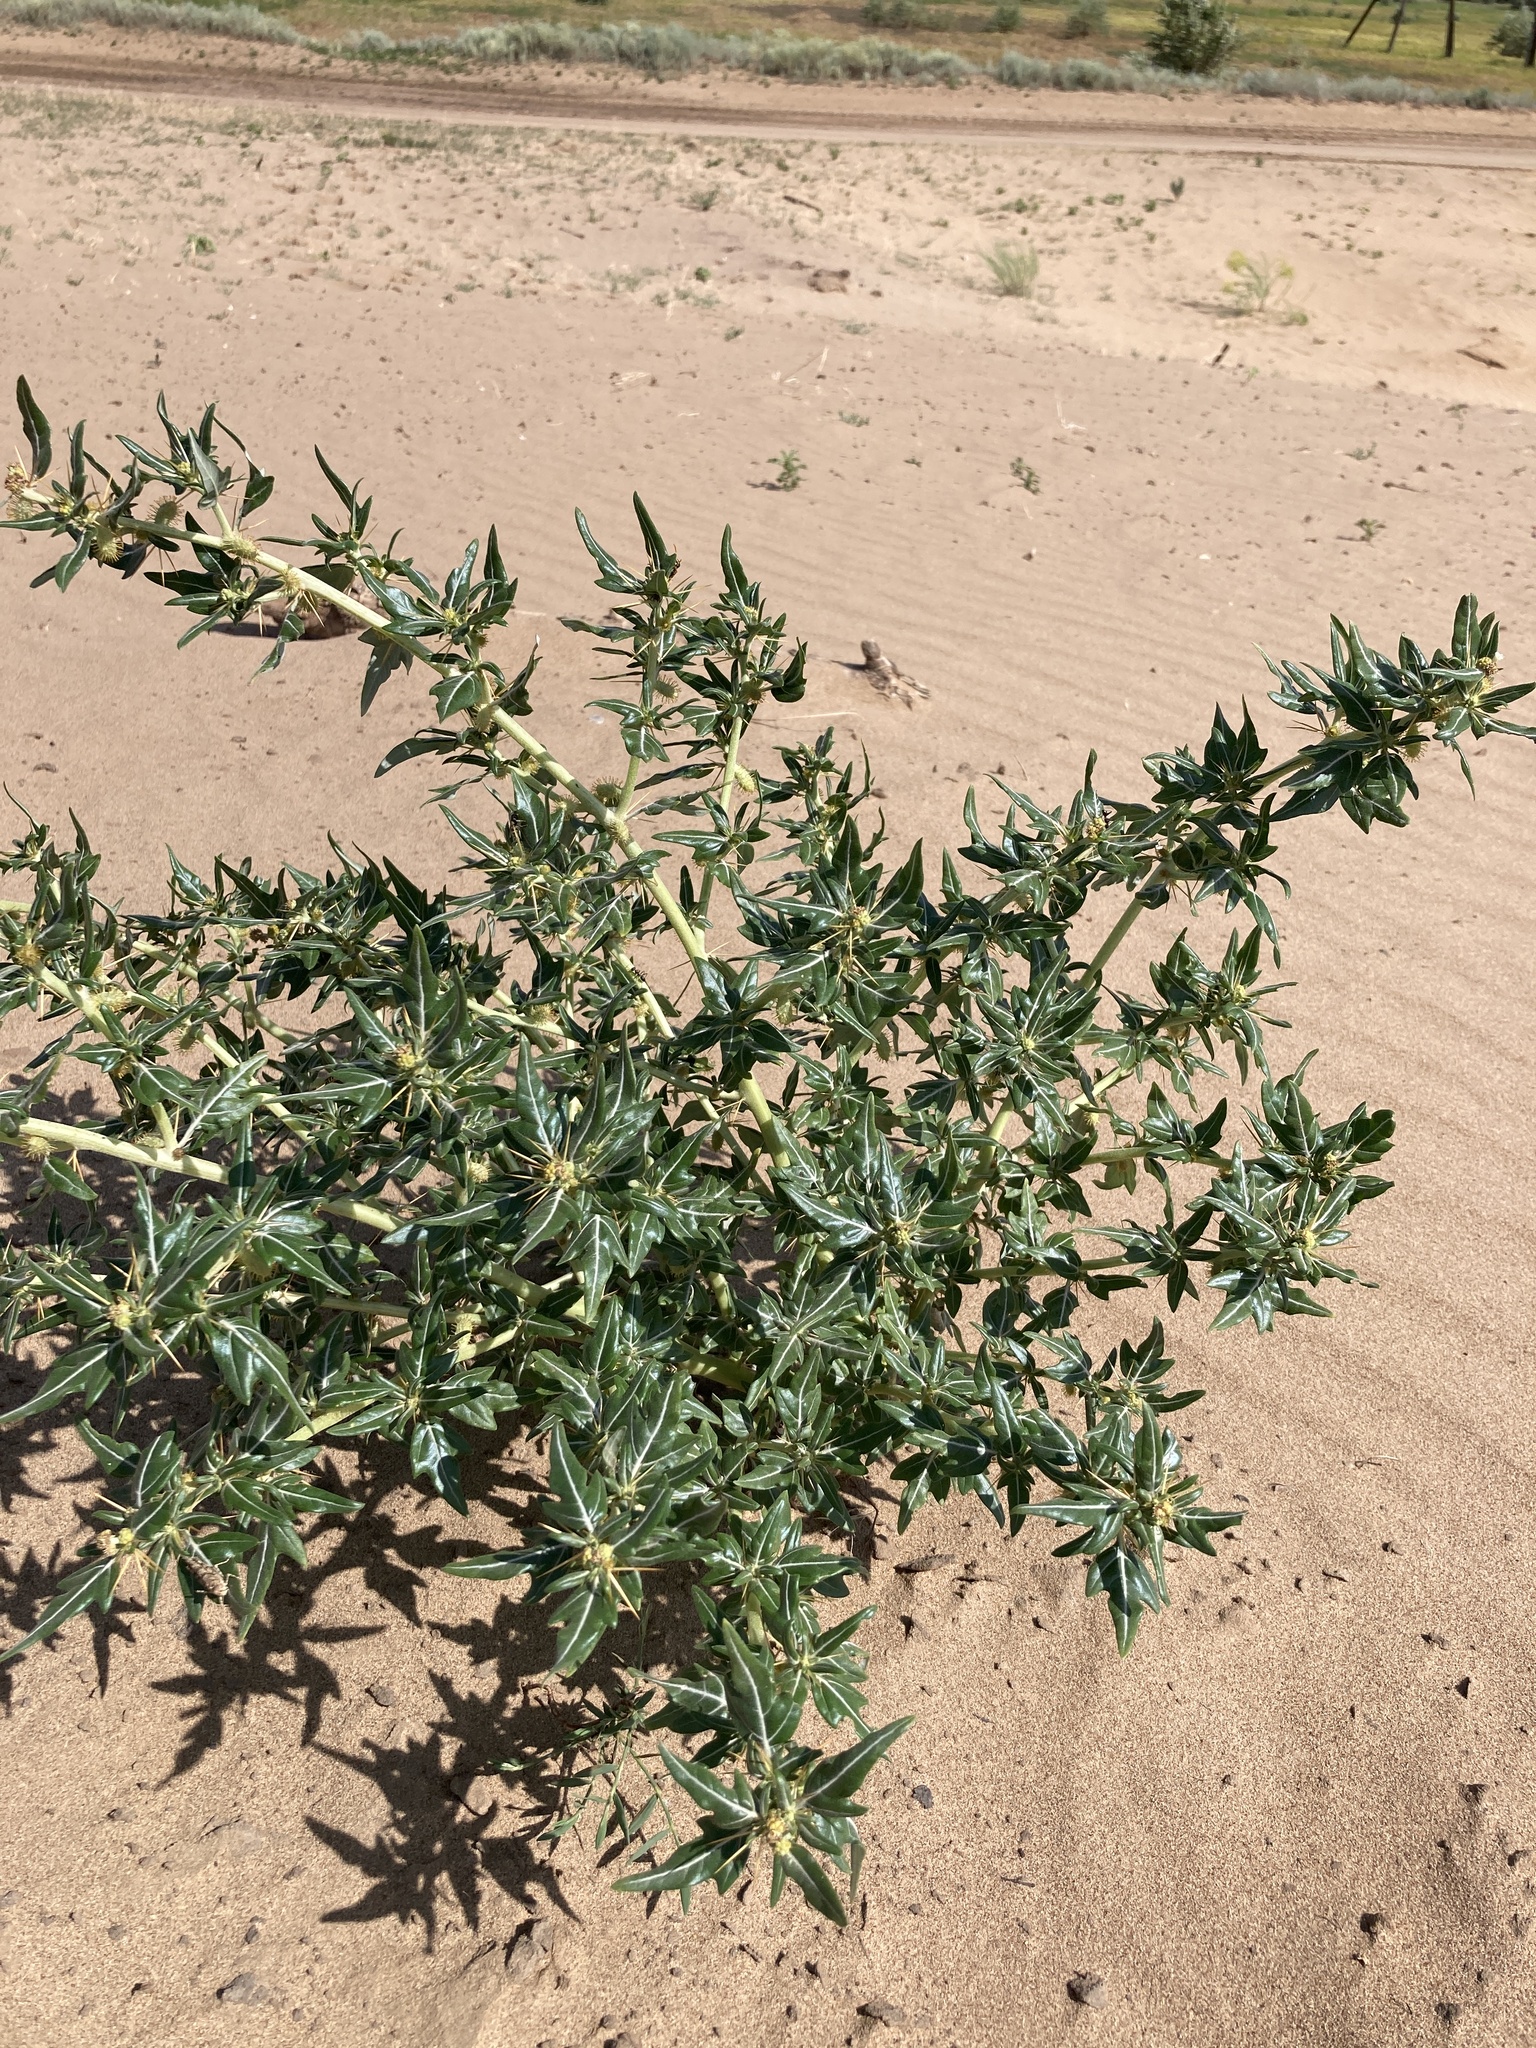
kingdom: Plantae
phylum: Tracheophyta
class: Magnoliopsida
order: Asterales
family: Asteraceae
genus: Xanthium
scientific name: Xanthium spinosum
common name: Spiny cocklebur
